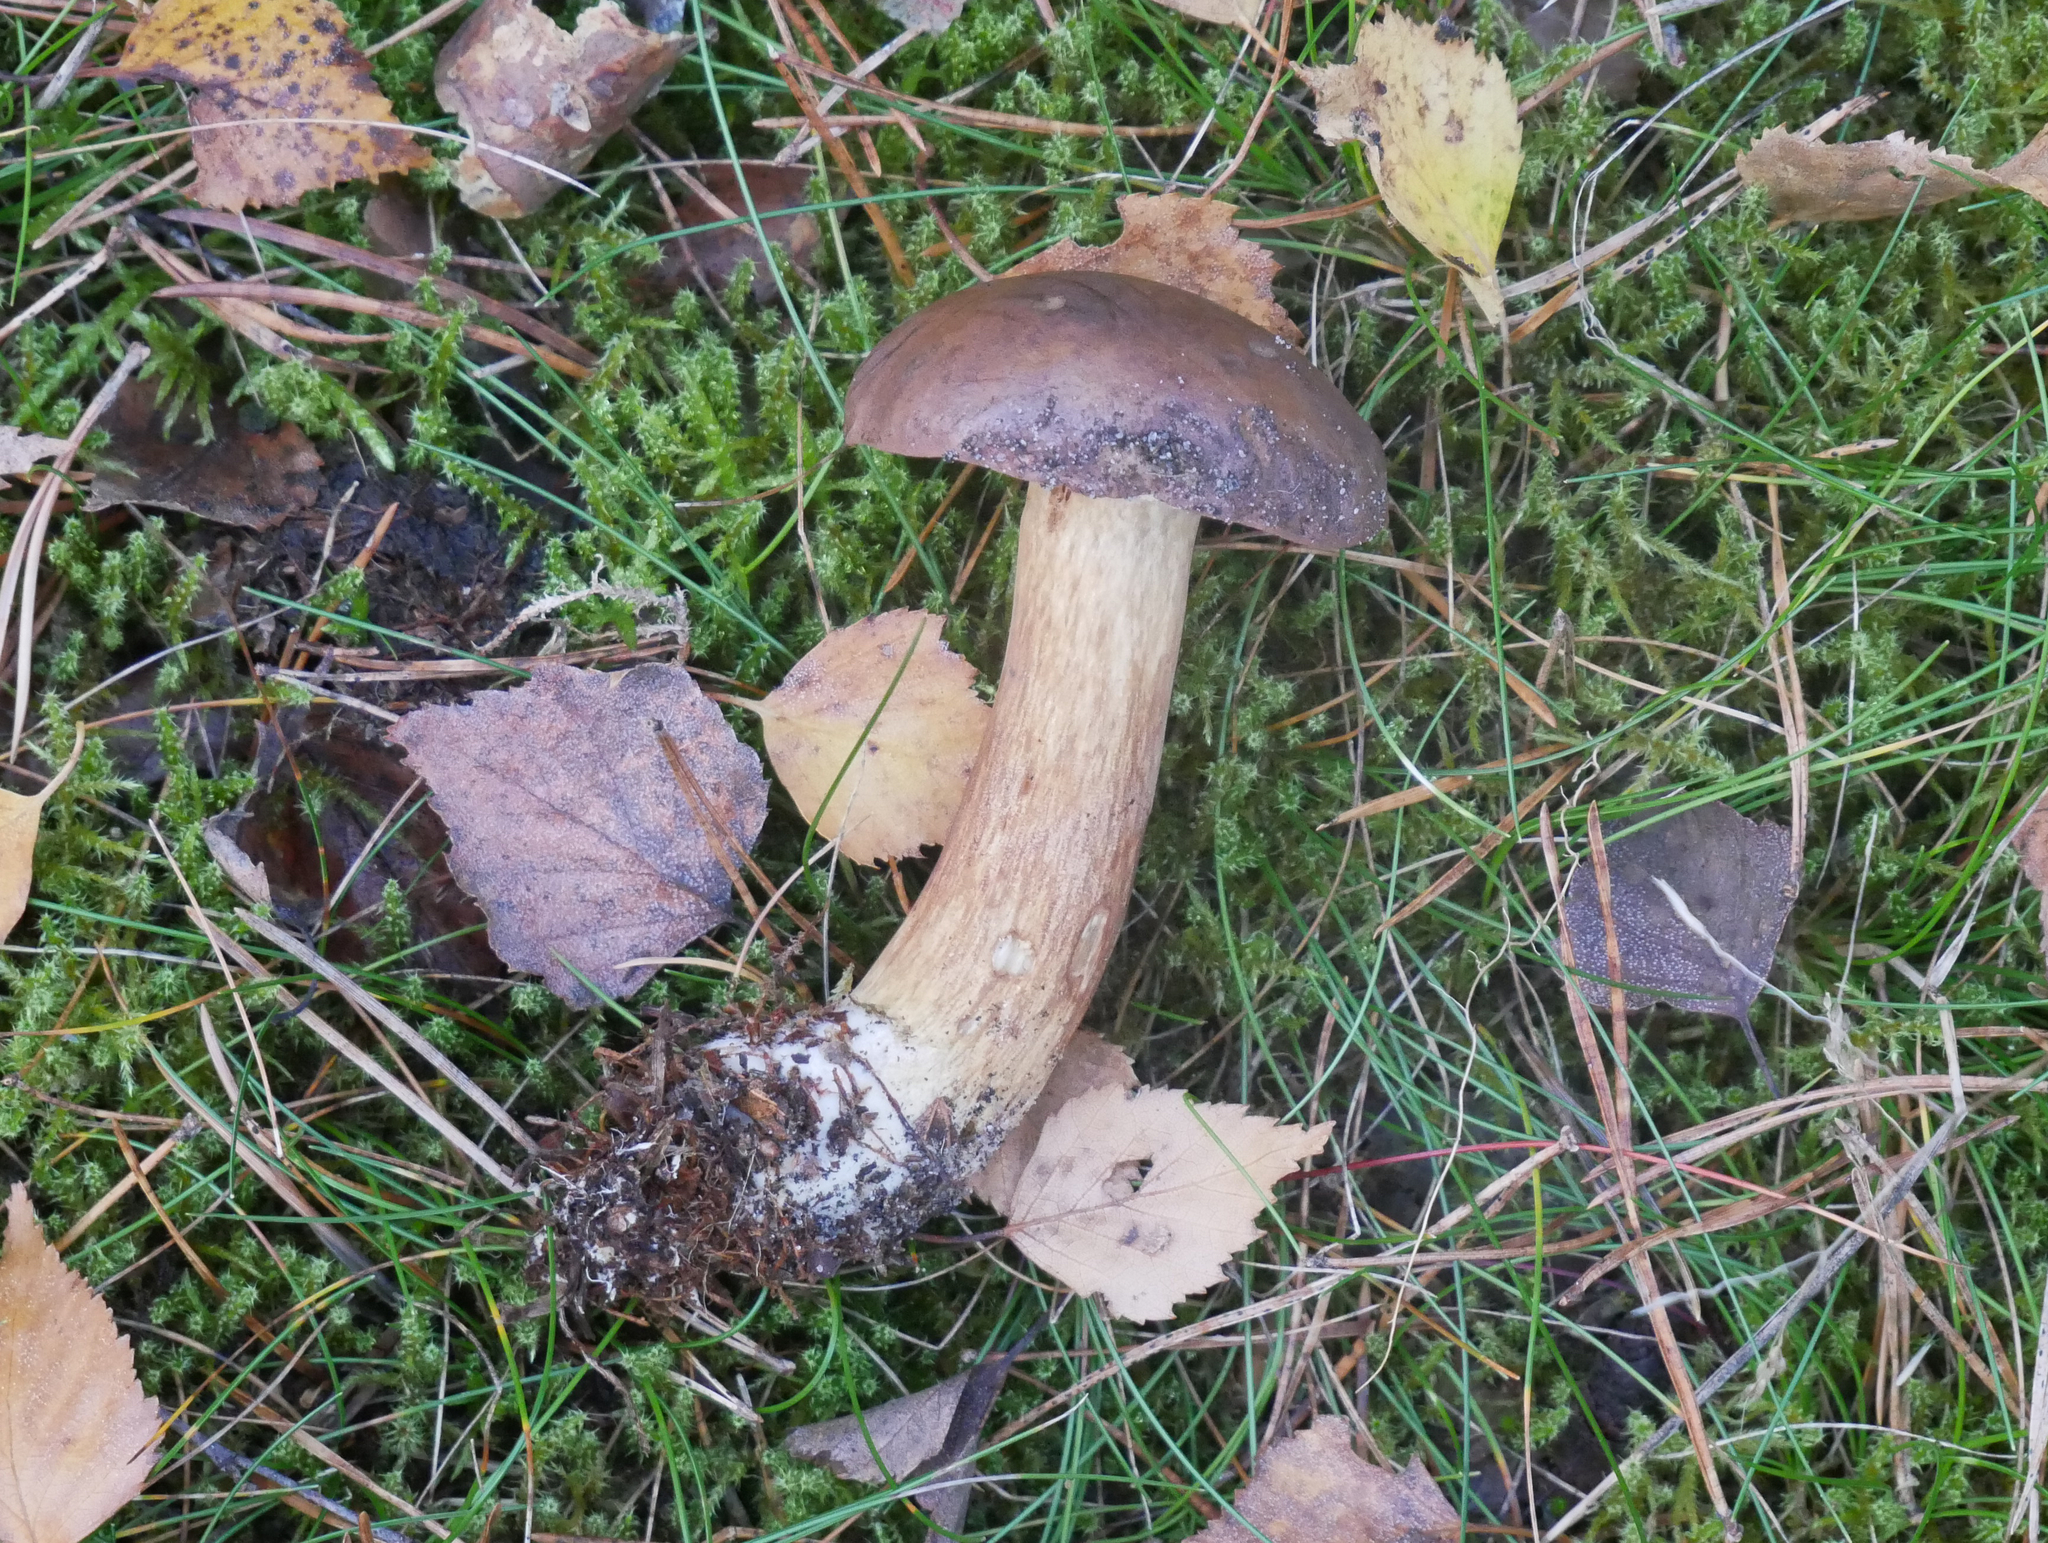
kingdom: Fungi
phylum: Basidiomycota
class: Agaricomycetes
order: Boletales
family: Boletaceae
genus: Imleria
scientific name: Imleria badia
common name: Bay bolete
